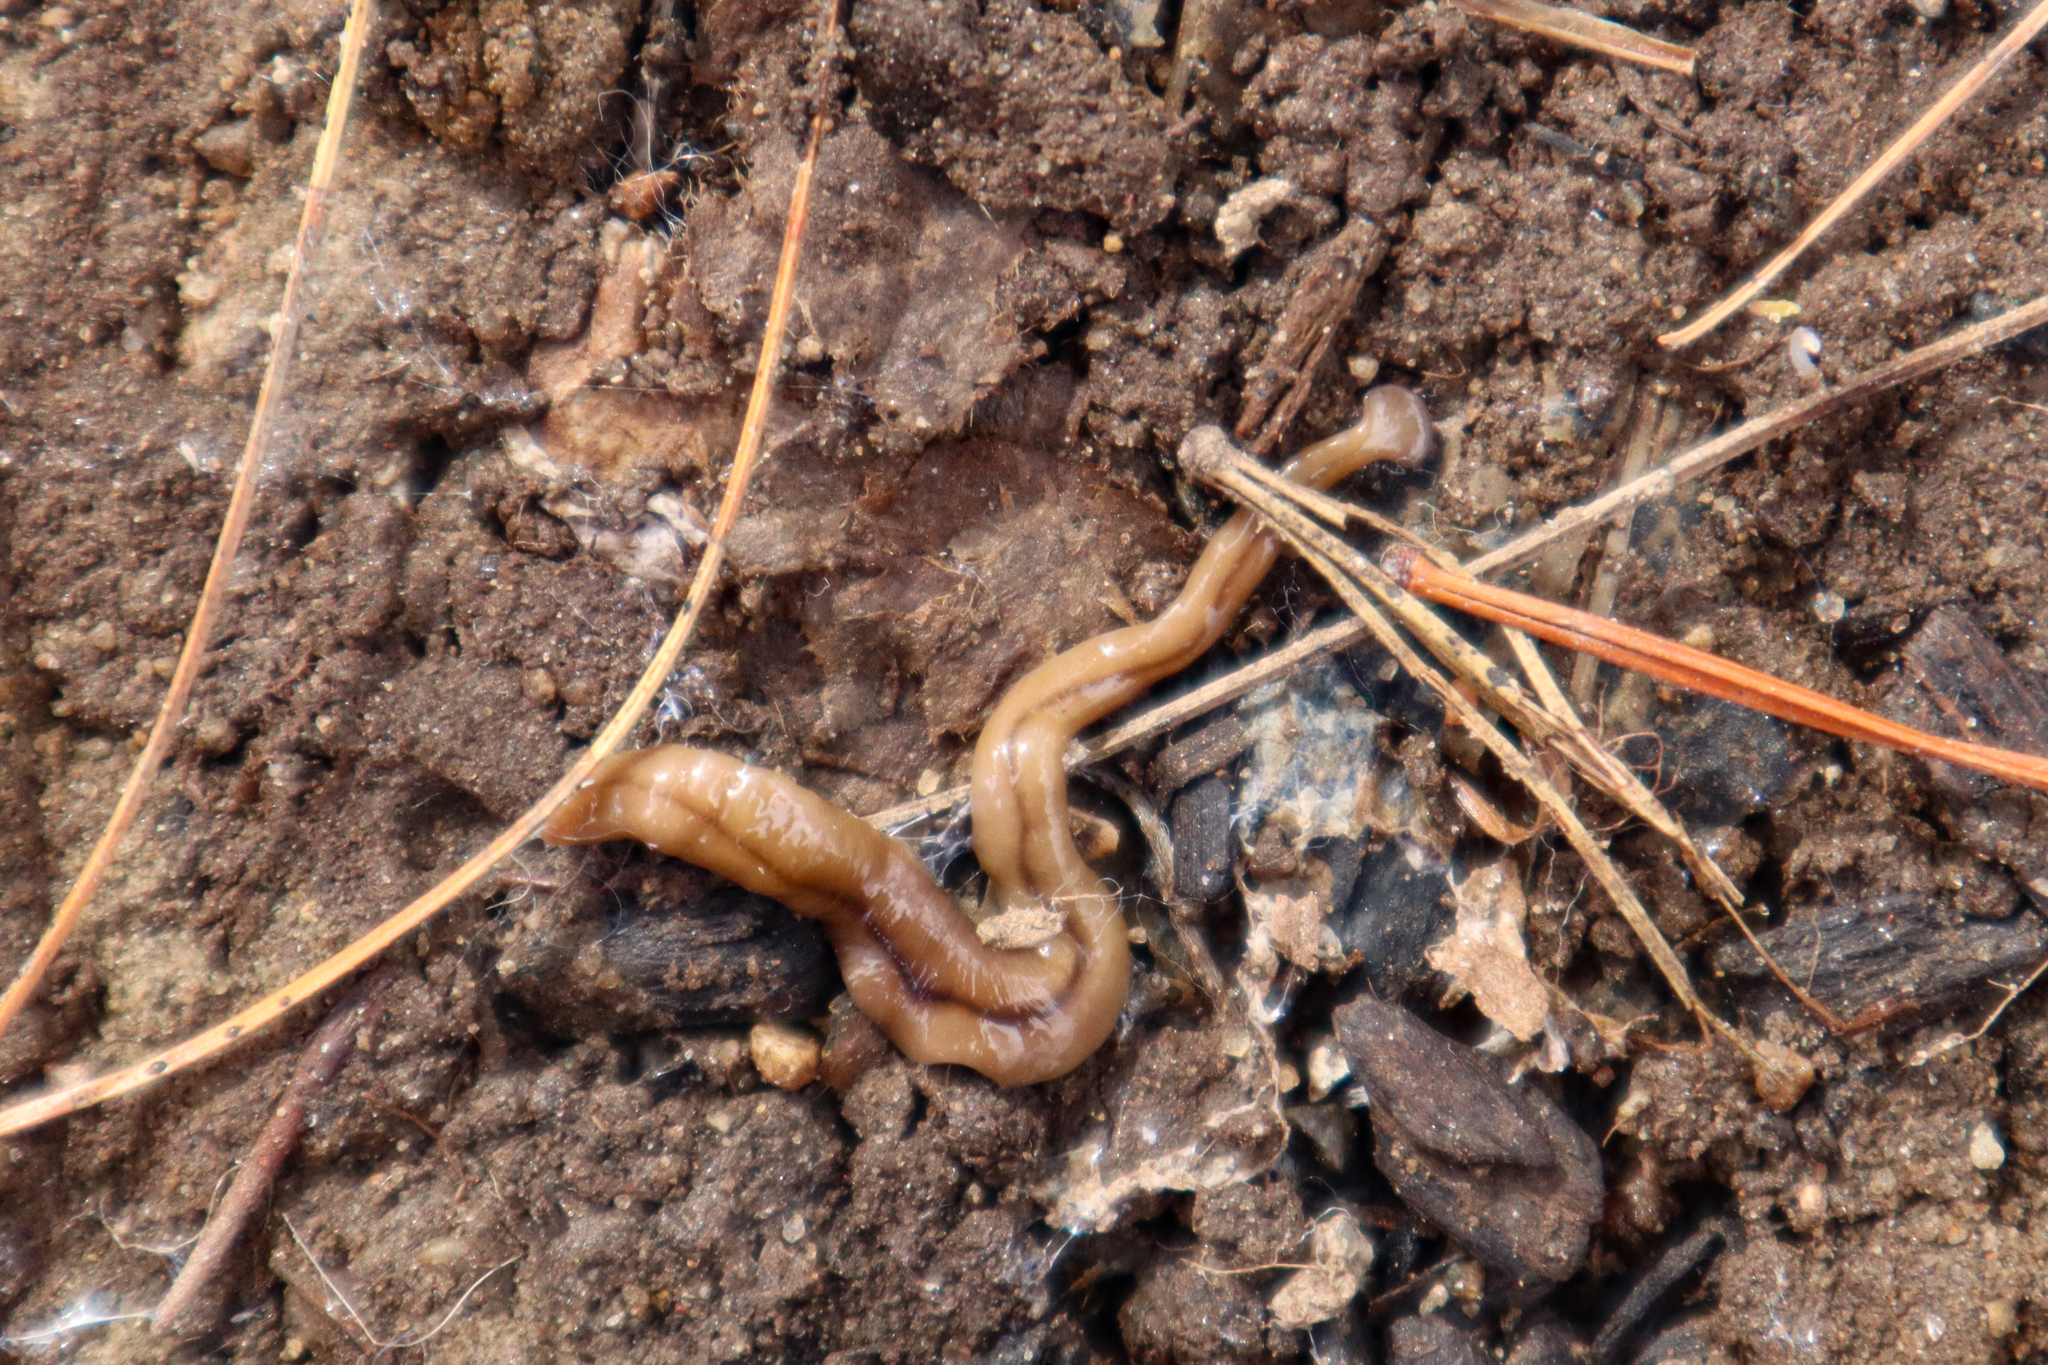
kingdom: Animalia
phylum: Platyhelminthes
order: Tricladida
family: Geoplanidae
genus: Bipalium
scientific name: Bipalium adventitium
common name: Land planarian
